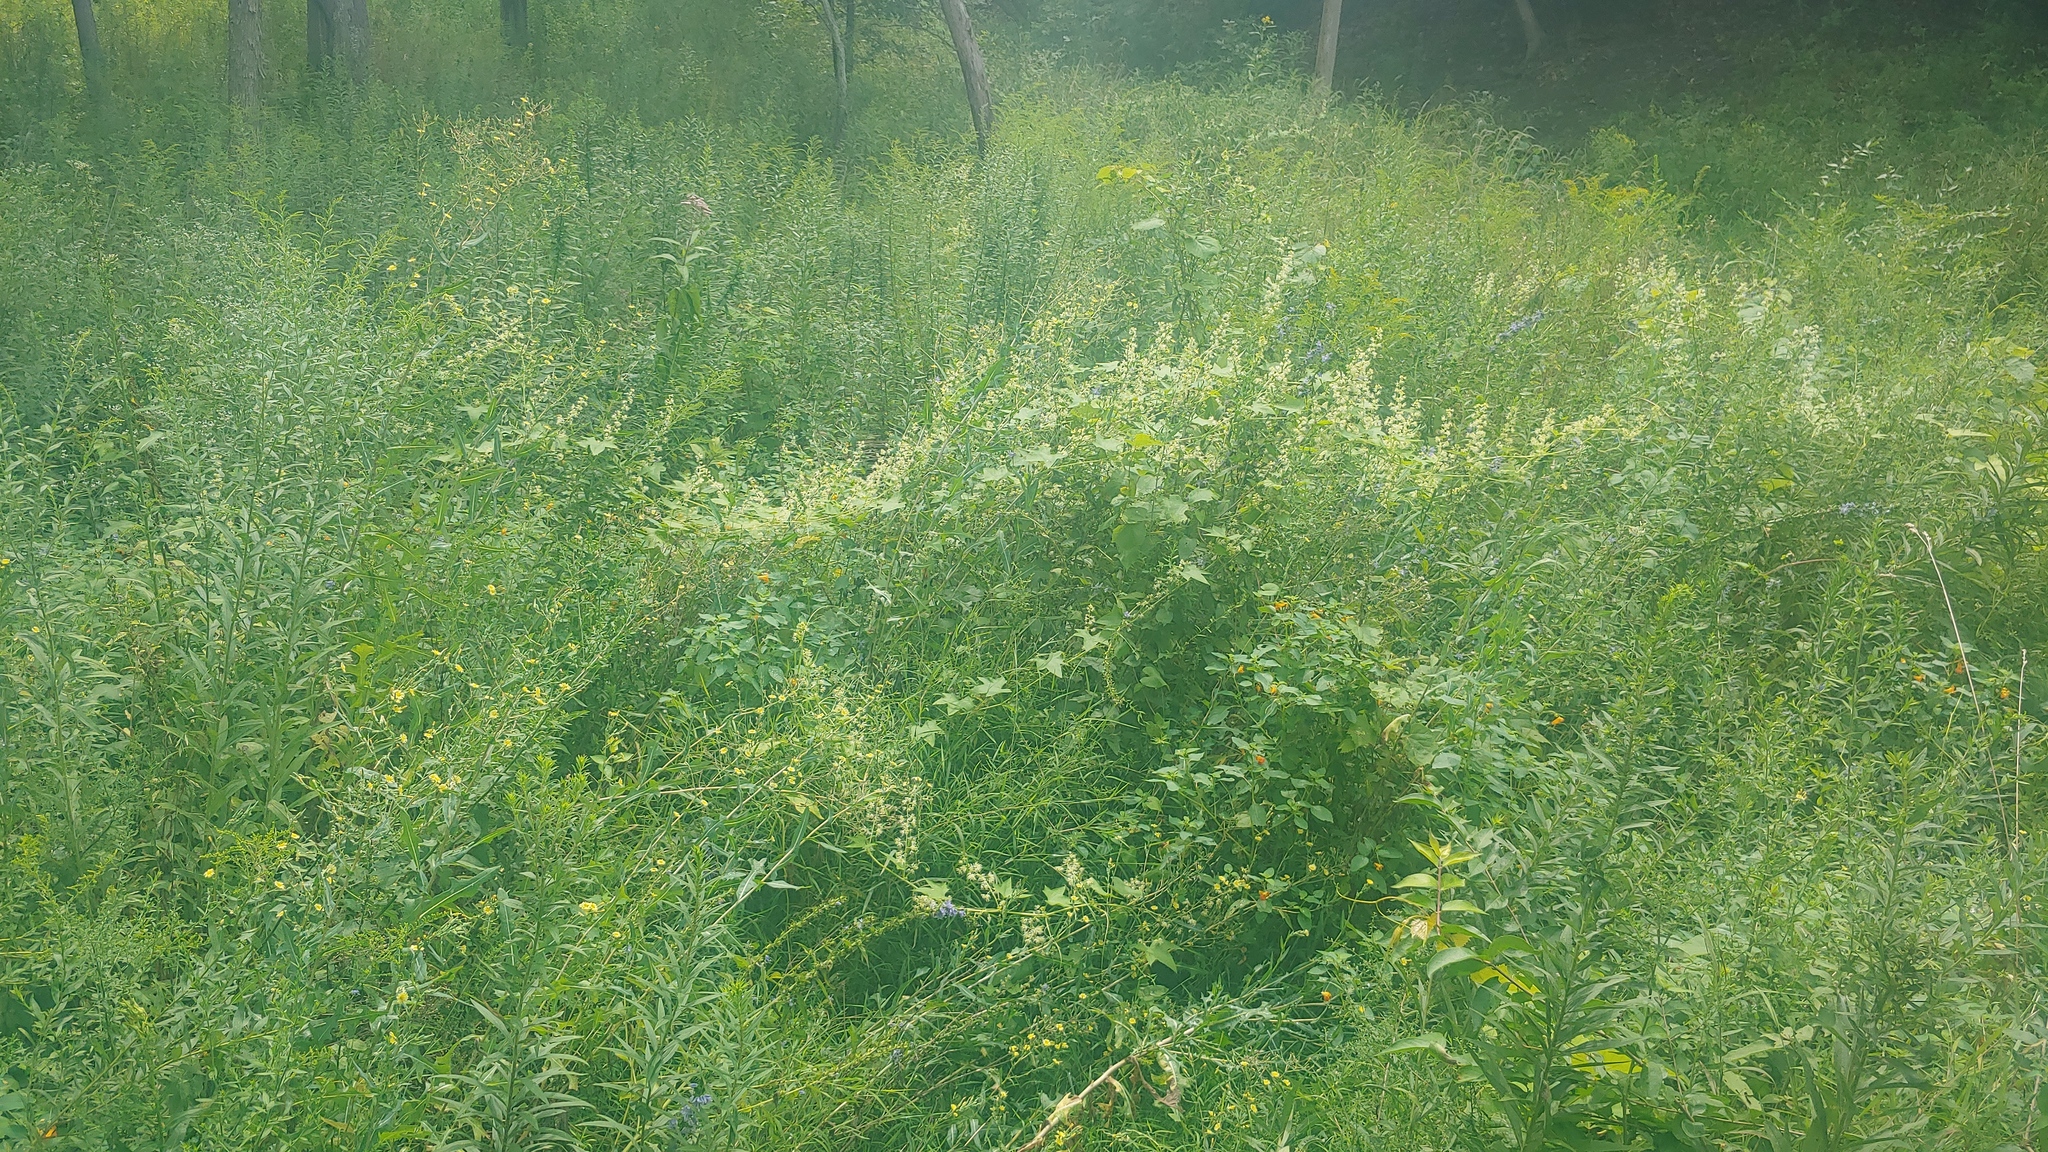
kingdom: Plantae
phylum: Tracheophyta
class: Magnoliopsida
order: Cucurbitales
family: Cucurbitaceae
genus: Echinocystis
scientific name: Echinocystis lobata
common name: Wild cucumber
